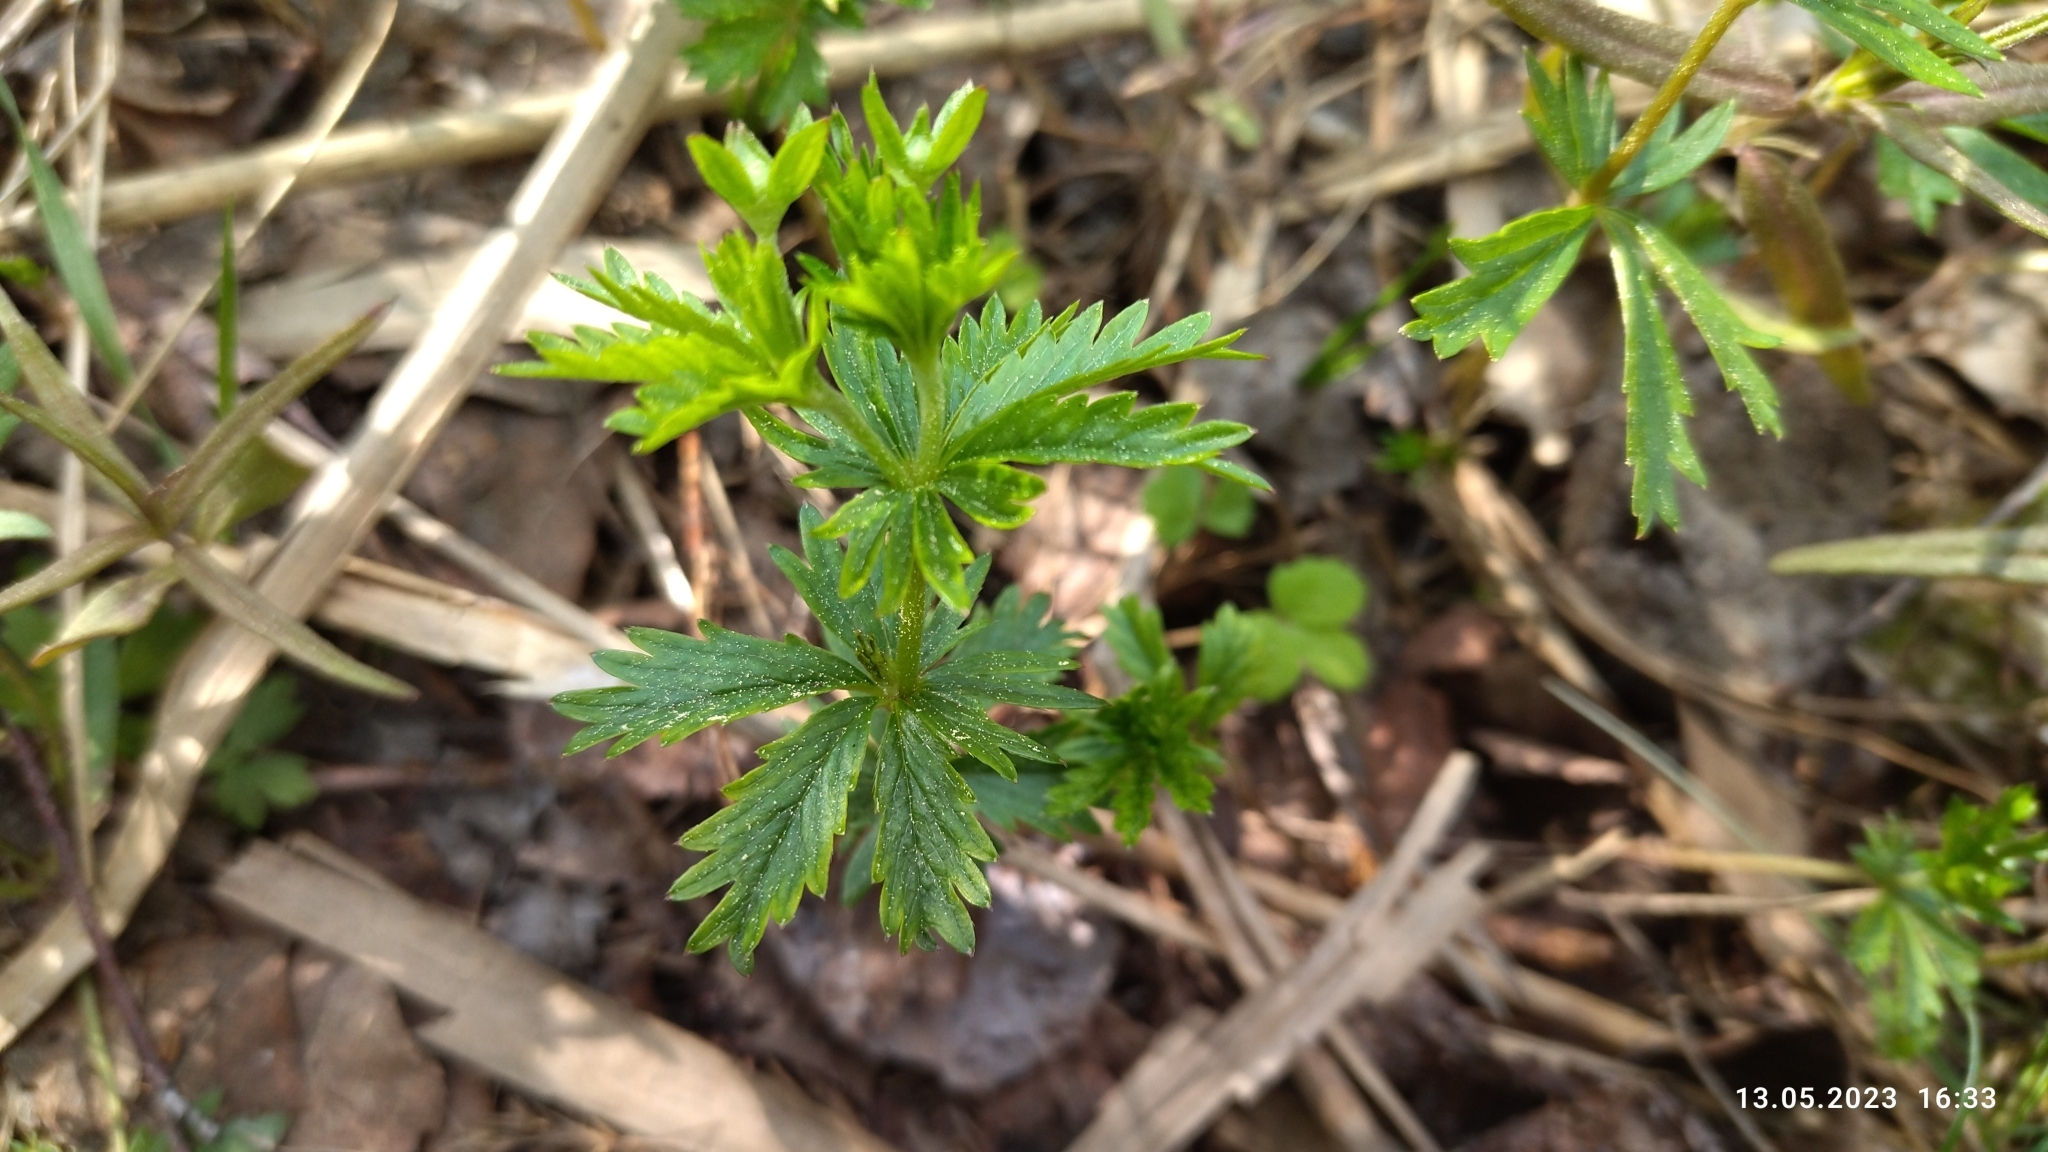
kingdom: Plantae
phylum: Tracheophyta
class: Magnoliopsida
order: Rosales
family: Rosaceae
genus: Potentilla
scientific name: Potentilla erecta
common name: Tormentil
